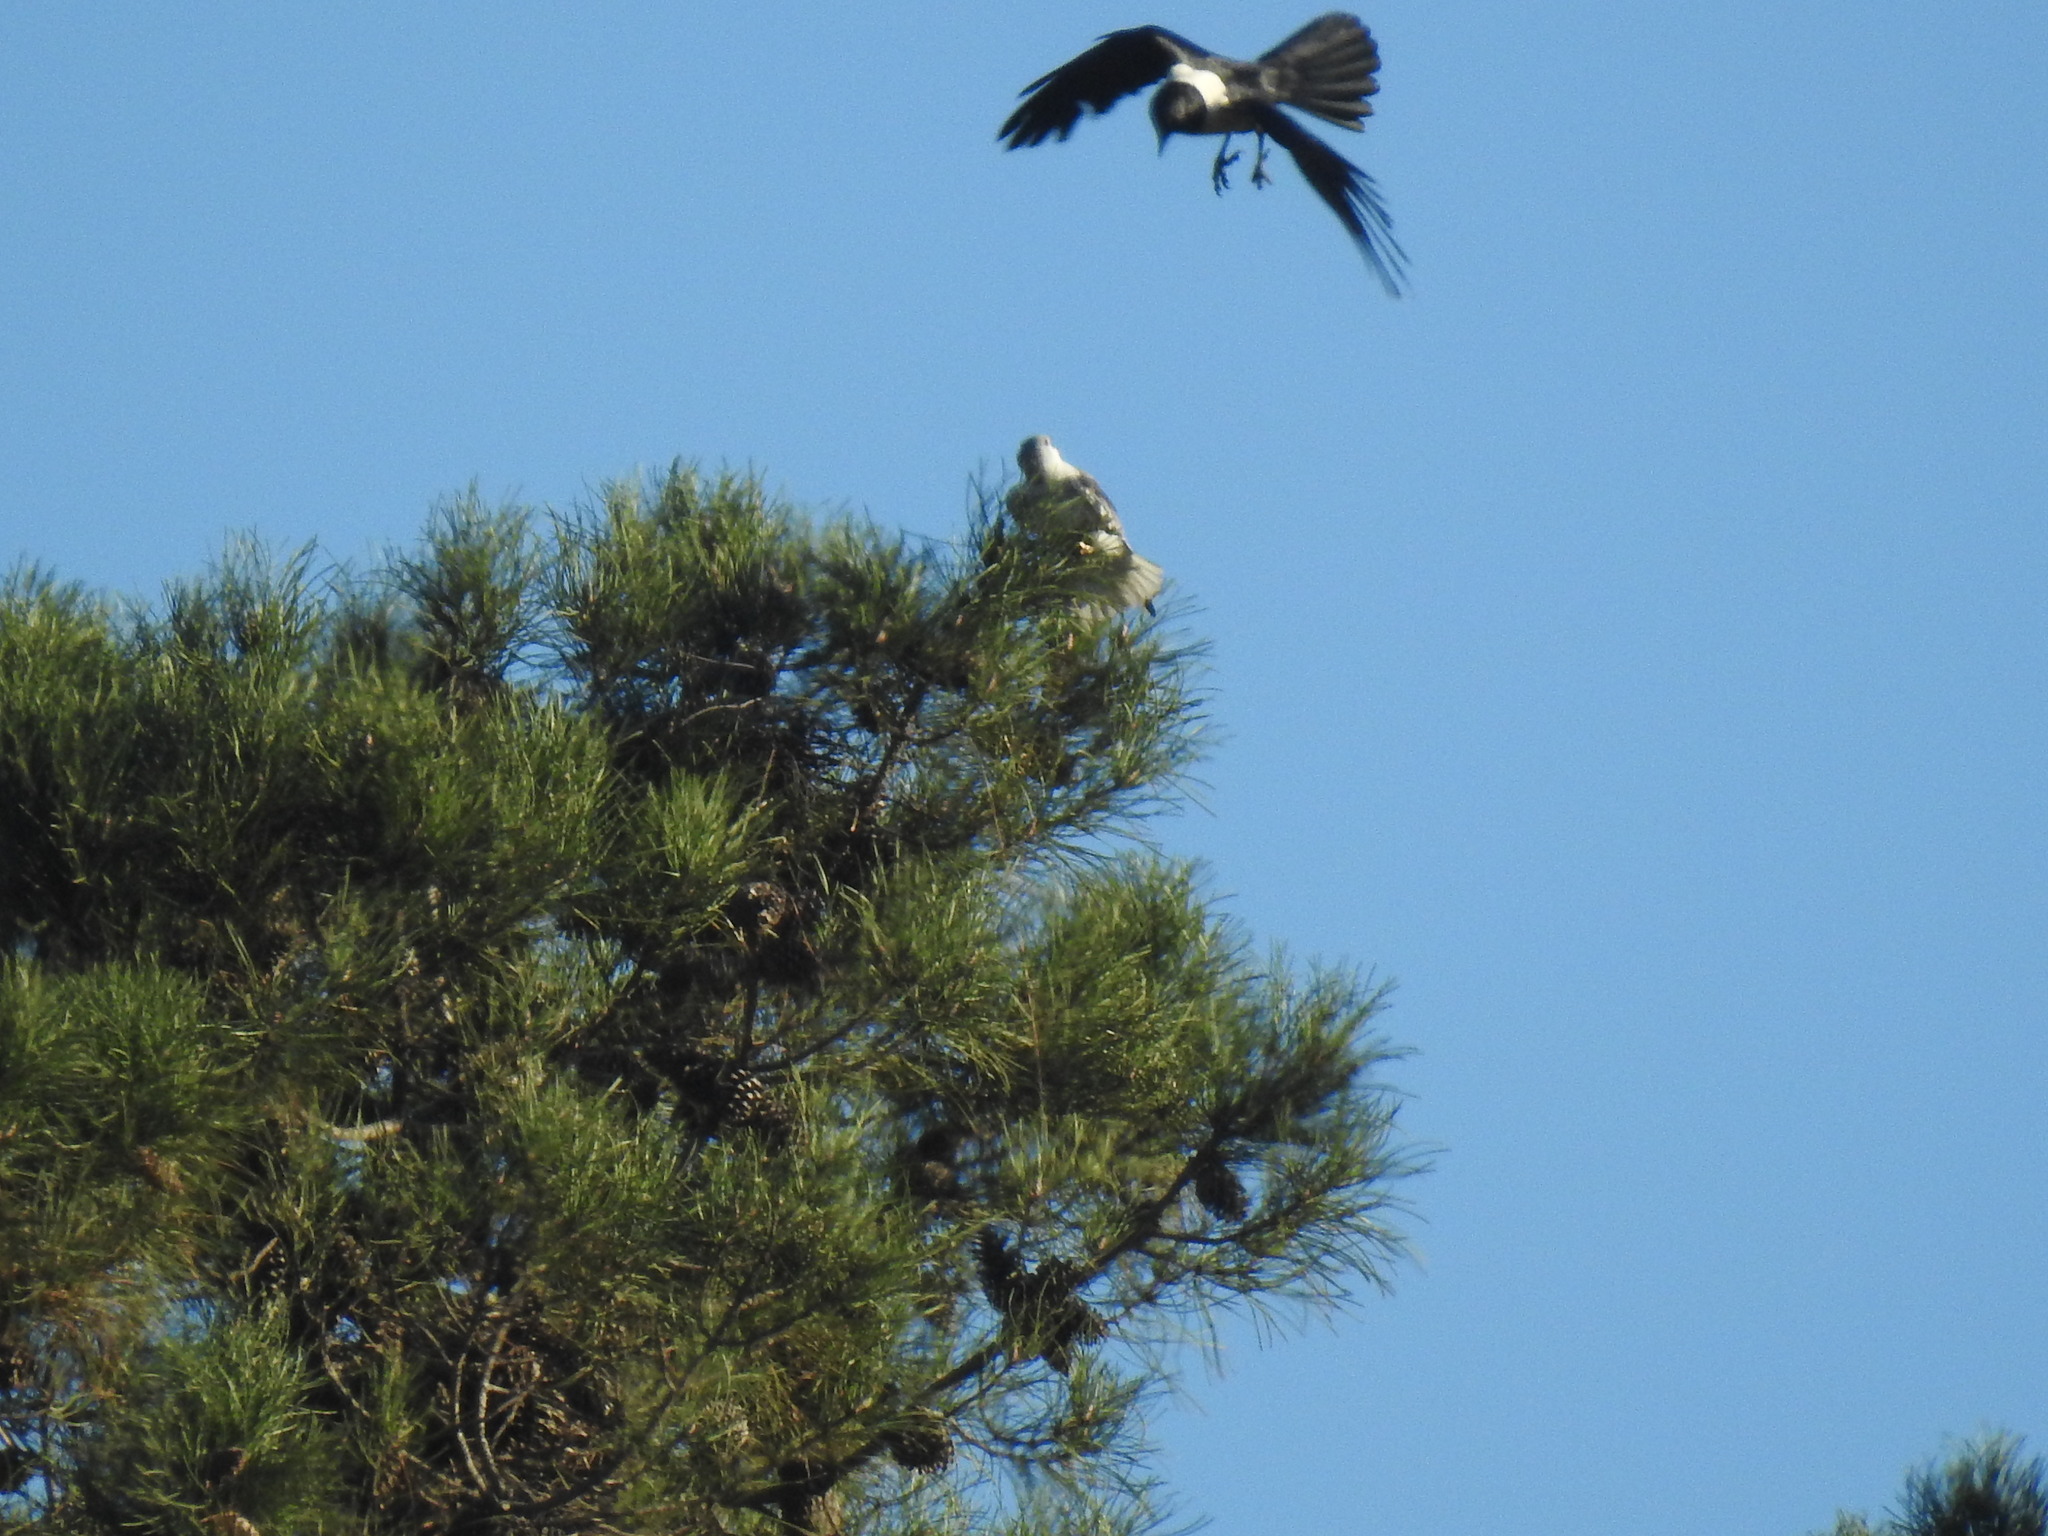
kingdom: Animalia
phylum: Chordata
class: Aves
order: Passeriformes
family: Corvidae
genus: Corvus
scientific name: Corvus albus
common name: Pied crow
